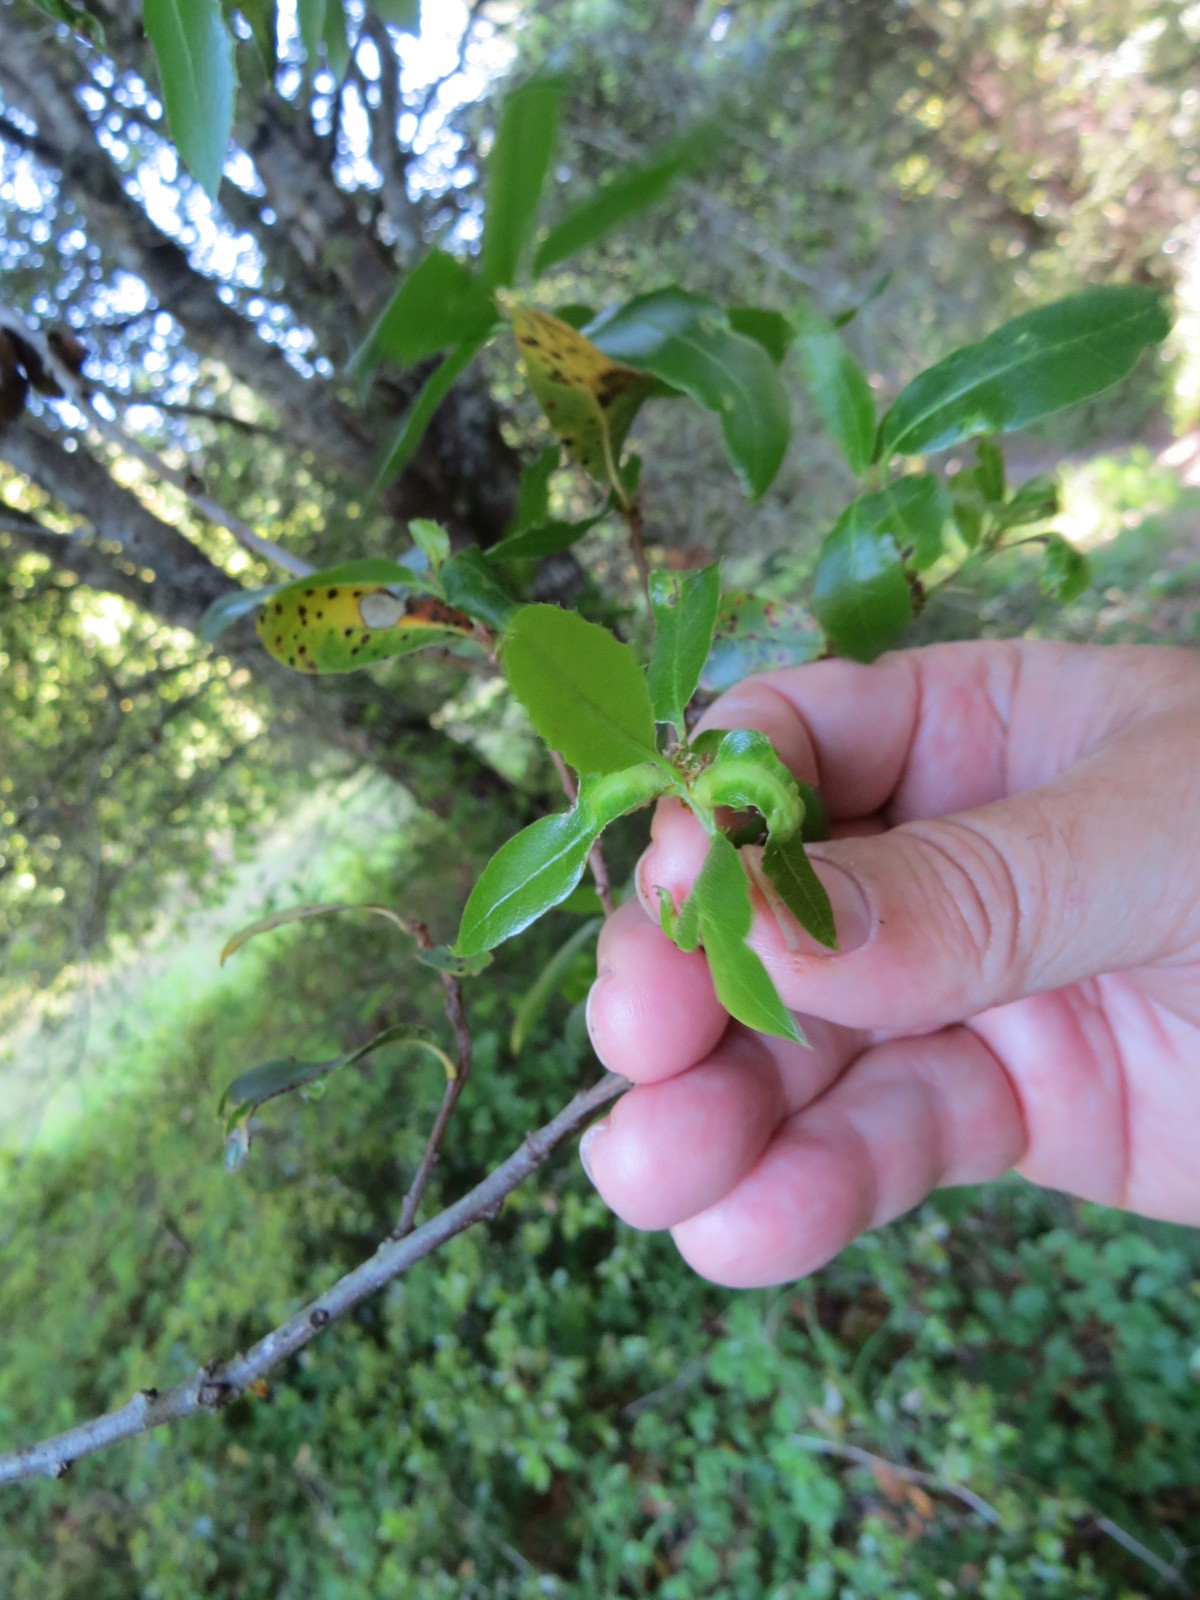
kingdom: Animalia
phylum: Arthropoda
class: Insecta
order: Hymenoptera
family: Cynipidae
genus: Melikaiella
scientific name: Melikaiella
